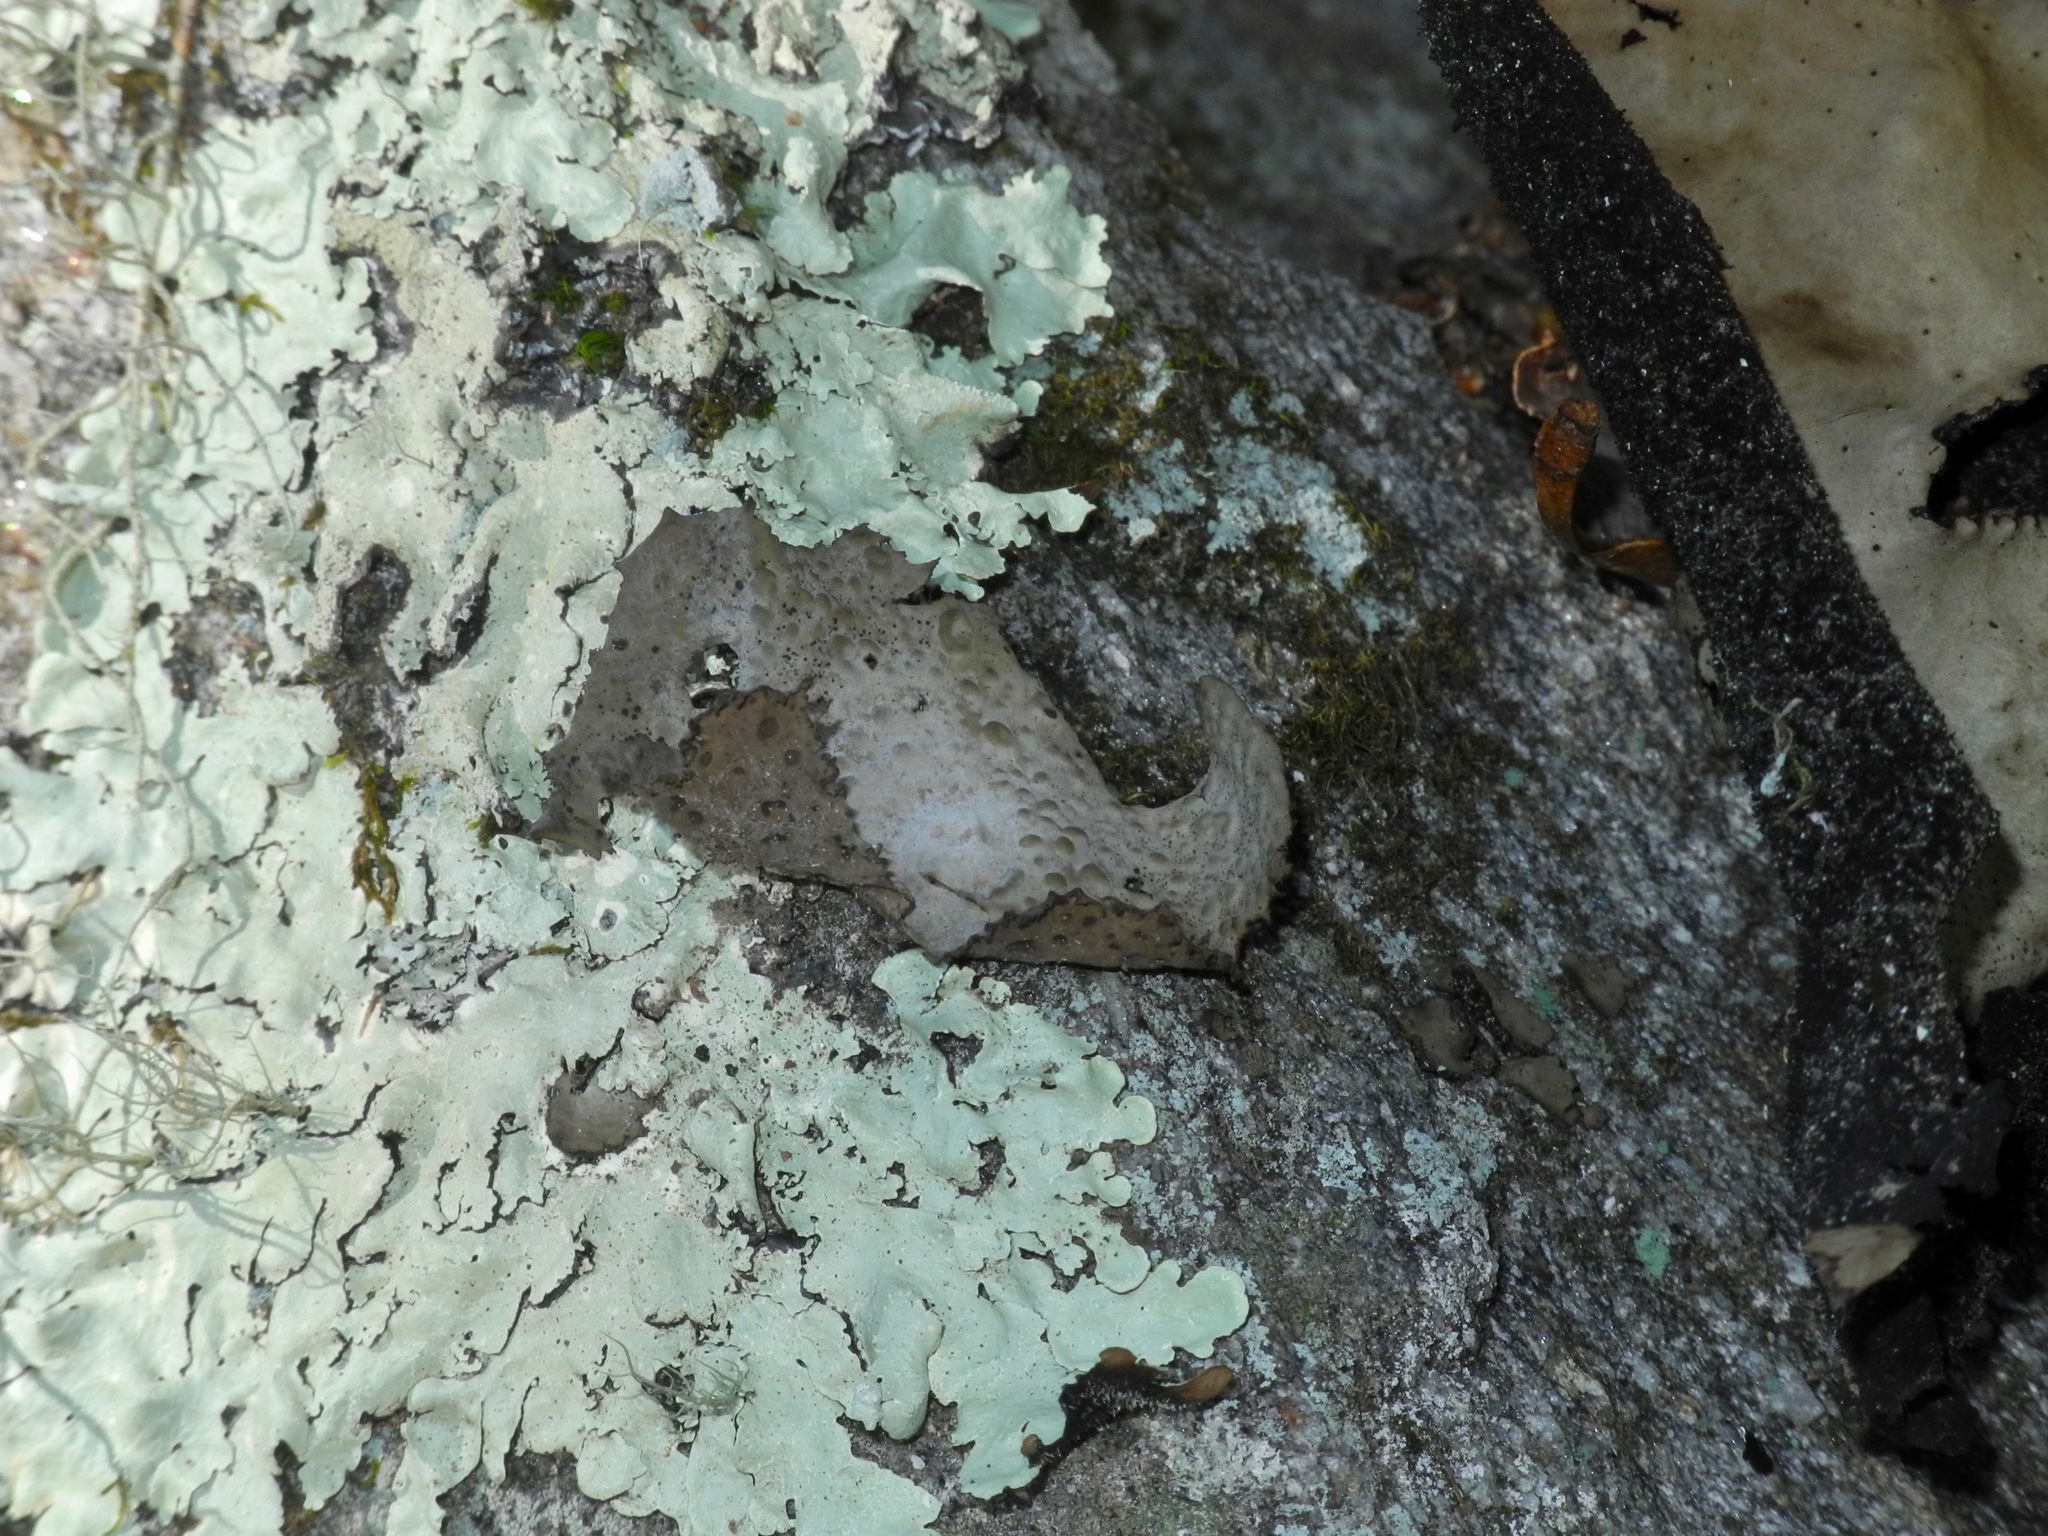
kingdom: Fungi
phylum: Ascomycota
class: Lecanoromycetes
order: Umbilicariales
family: Umbilicariaceae
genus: Lasallia
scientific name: Lasallia papulosa
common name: Common toadskin lichen
